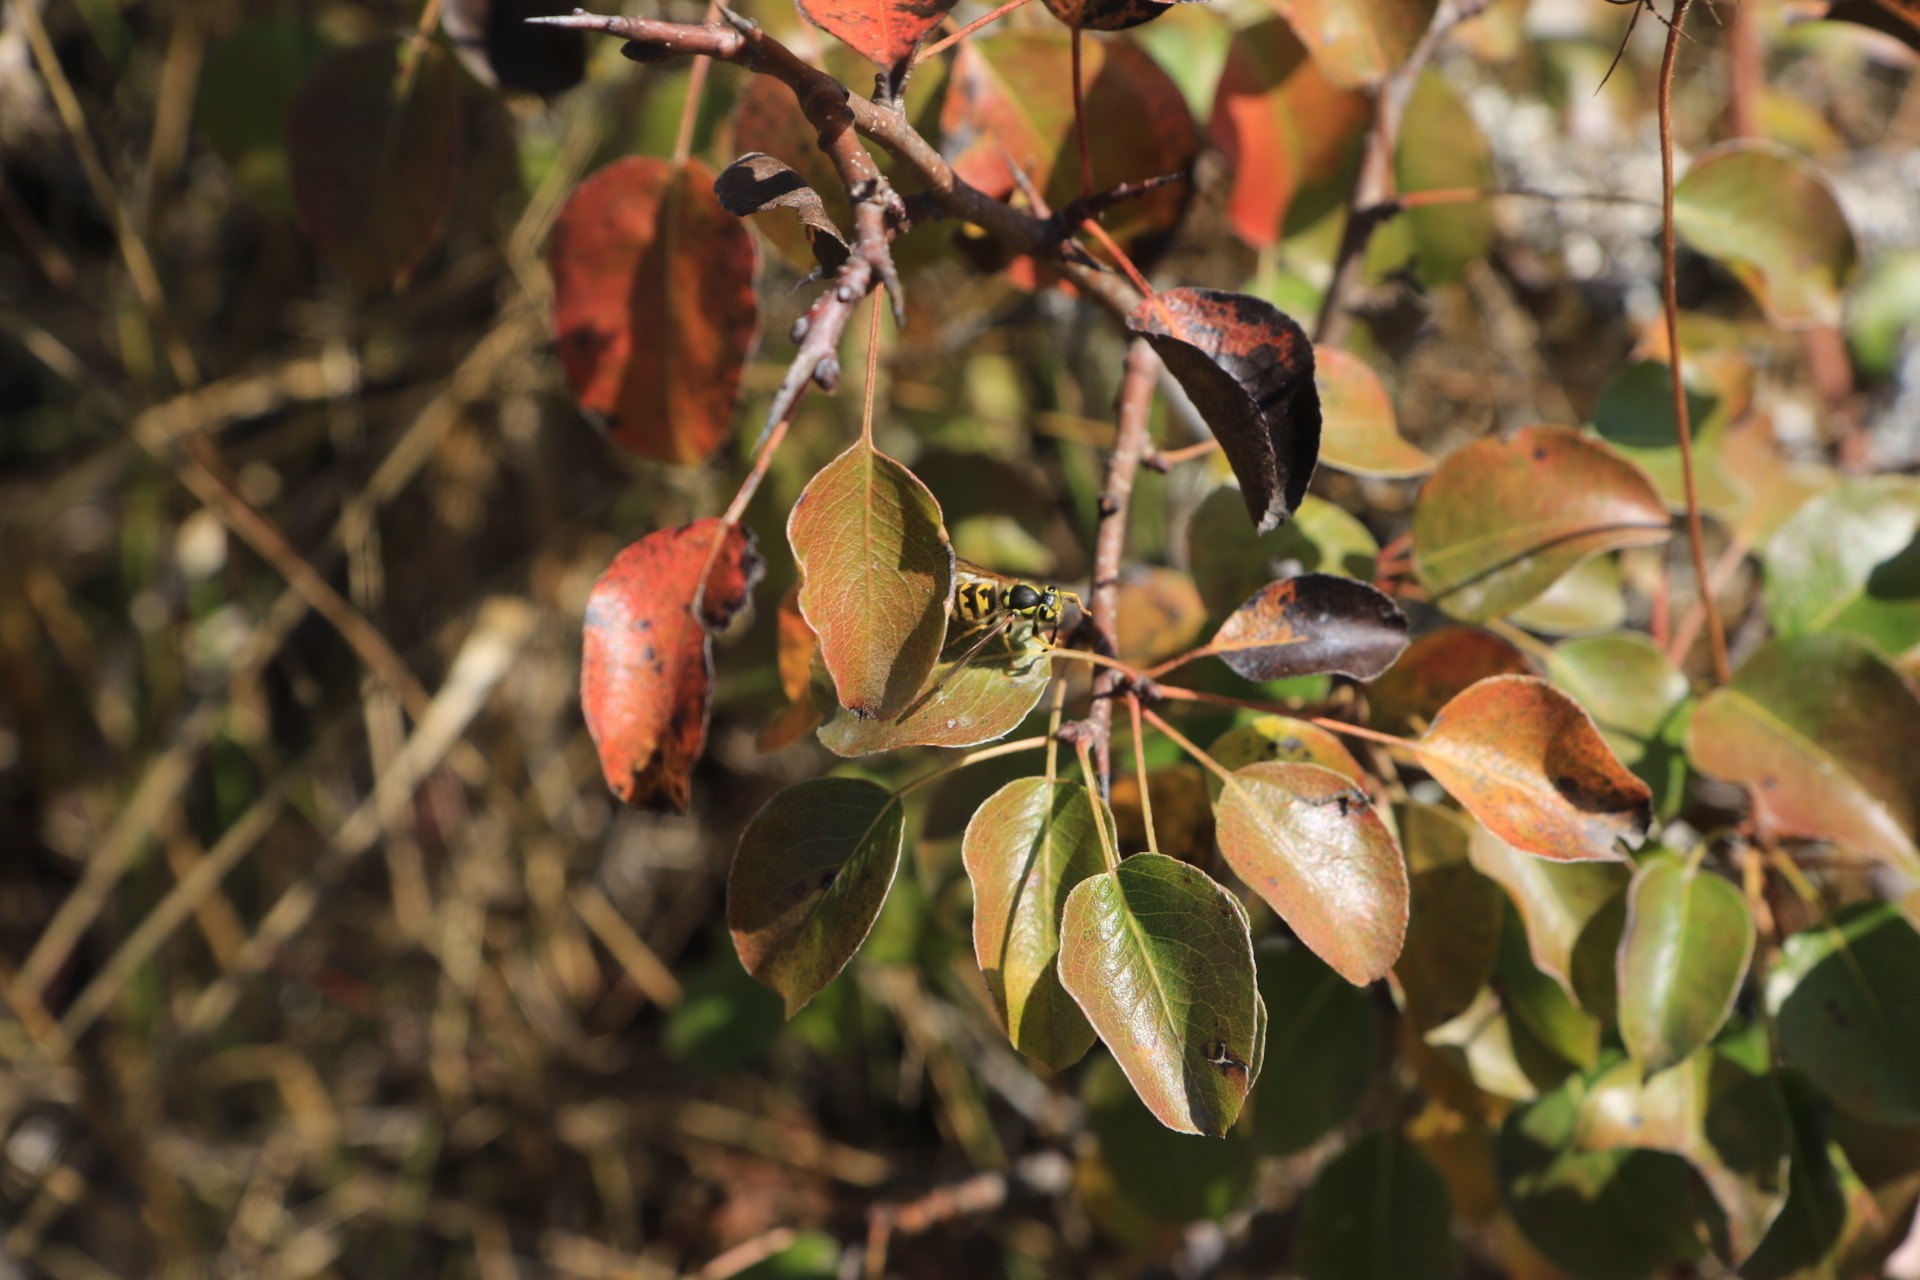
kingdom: Animalia
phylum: Arthropoda
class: Insecta
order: Hymenoptera
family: Vespidae
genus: Vespula
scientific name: Vespula pensylvanica
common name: Western yellowjacket
